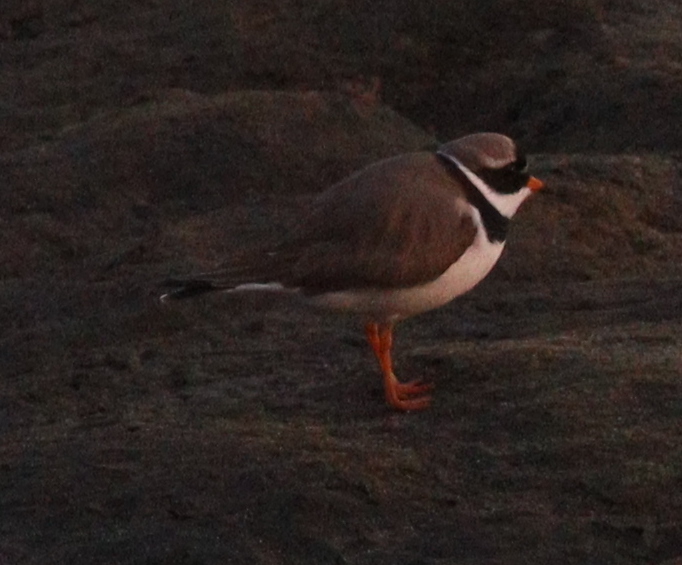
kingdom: Animalia
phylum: Chordata
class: Aves
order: Charadriiformes
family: Charadriidae
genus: Charadrius
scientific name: Charadrius hiaticula
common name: Common ringed plover
